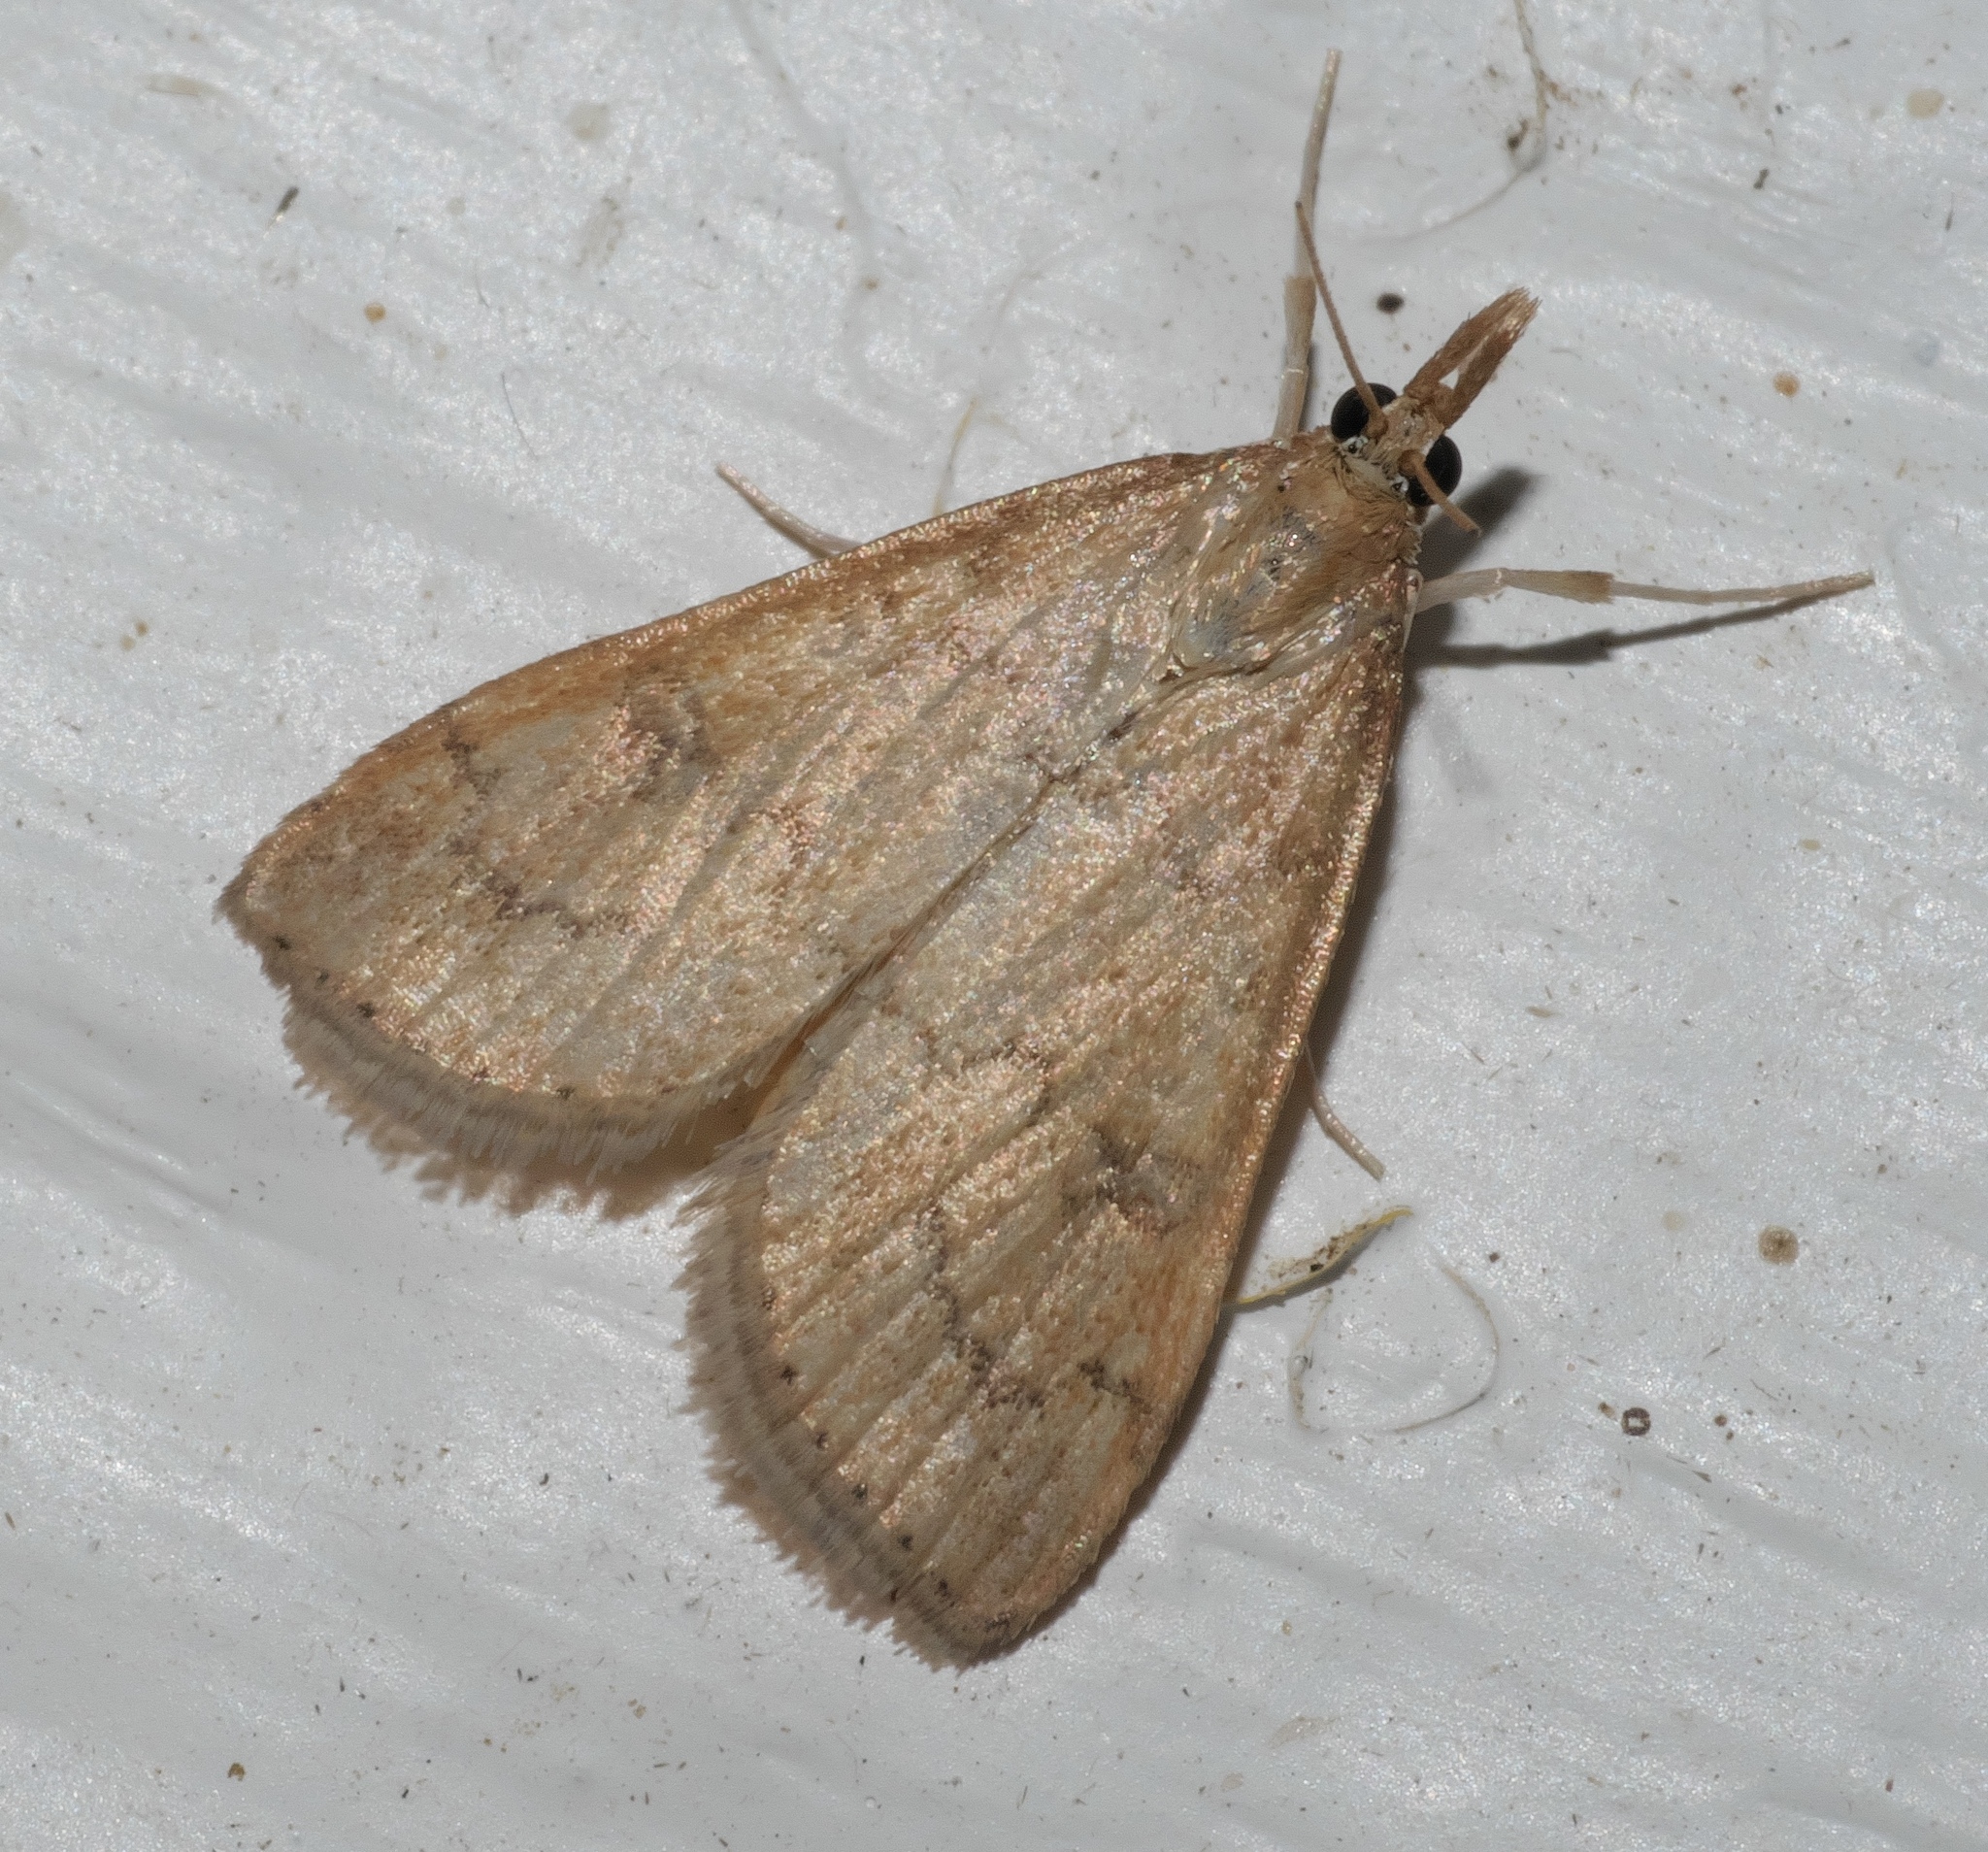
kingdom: Animalia
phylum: Arthropoda
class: Insecta
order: Lepidoptera
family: Crambidae
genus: Udea
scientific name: Udea rubigalis
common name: Celery leaftier moth
